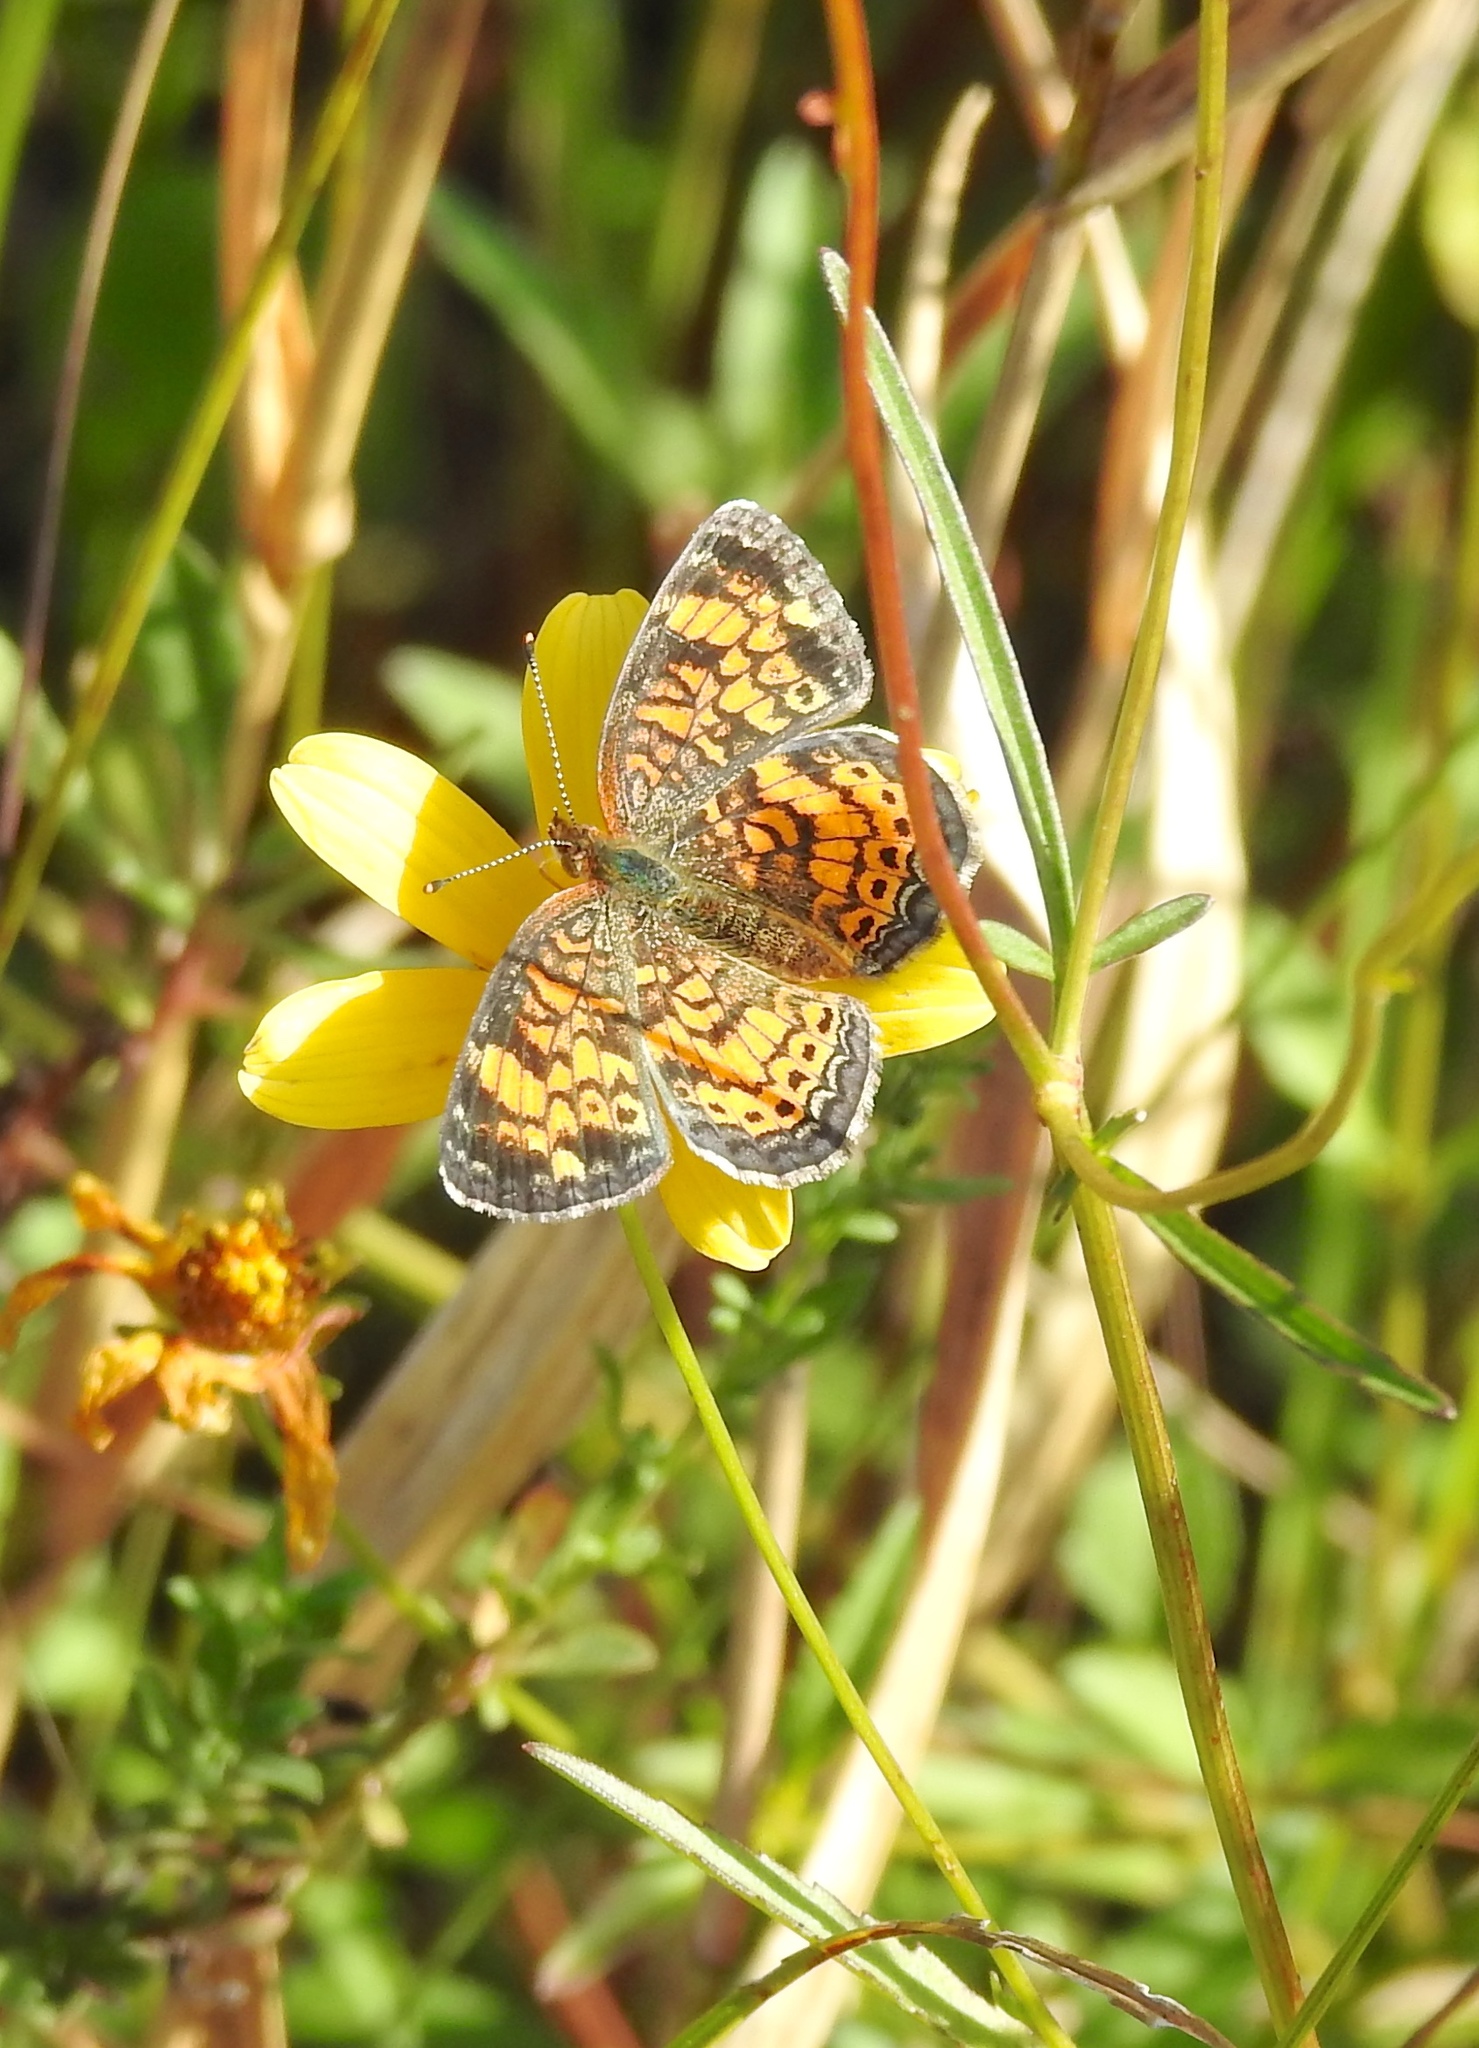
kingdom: Animalia
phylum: Arthropoda
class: Insecta
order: Lepidoptera
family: Nymphalidae
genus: Phyciodes
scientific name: Phyciodes tharos
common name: Pearl crescent
